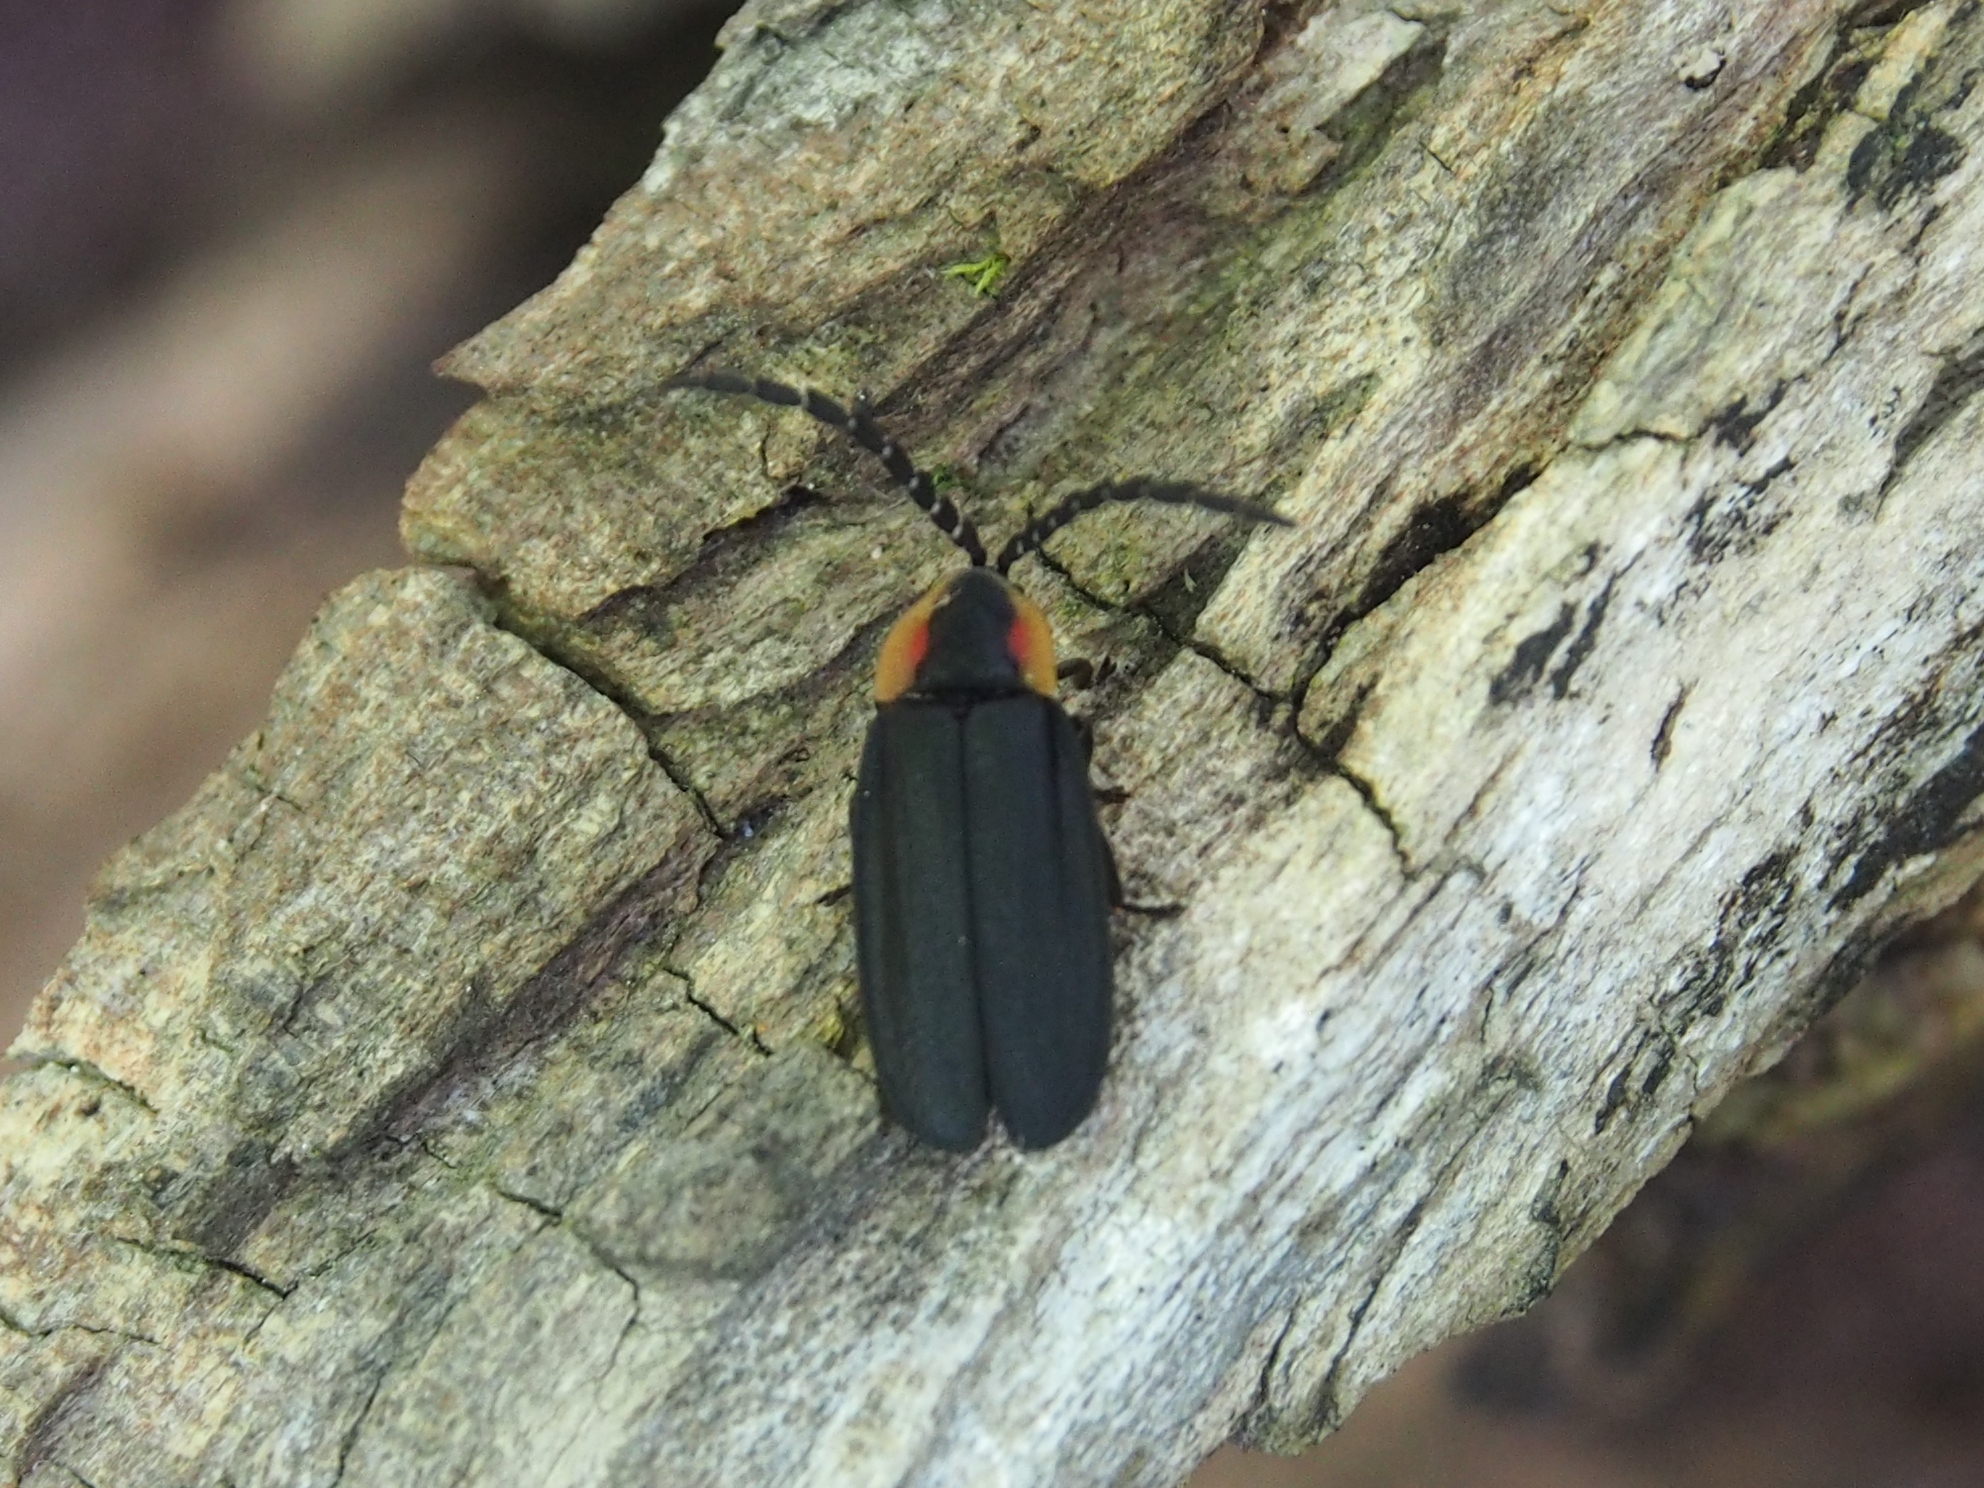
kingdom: Animalia
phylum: Arthropoda
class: Insecta
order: Coleoptera
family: Lampyridae
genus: Lucidota
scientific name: Lucidota atra
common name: Black firefly
